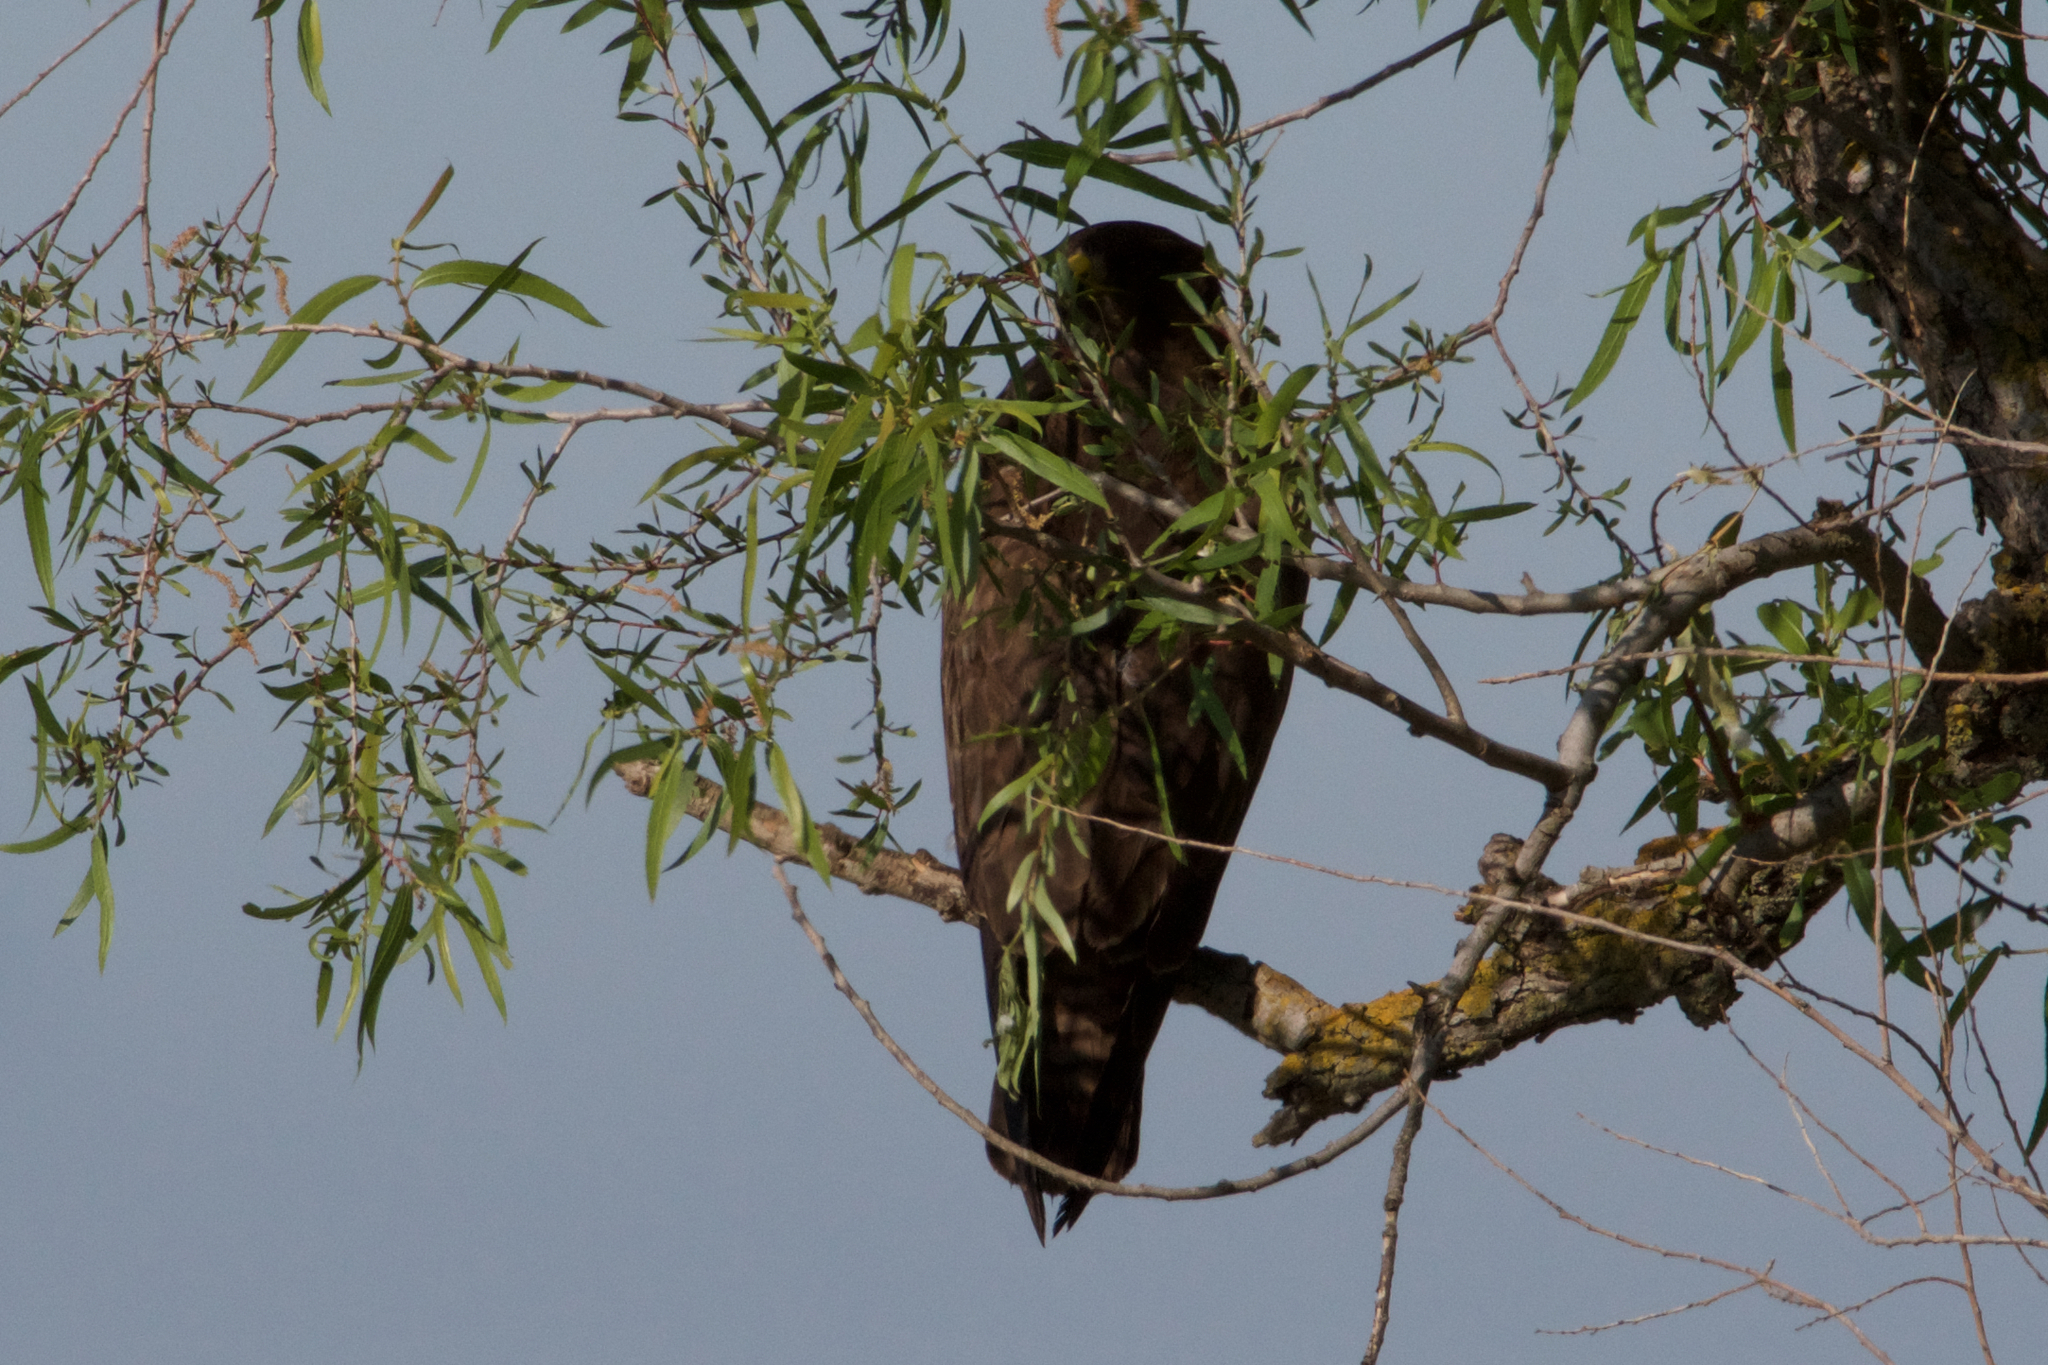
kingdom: Animalia
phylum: Chordata
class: Aves
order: Accipitriformes
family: Accipitridae
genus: Buteo
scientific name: Buteo swainsoni
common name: Swainson's hawk
